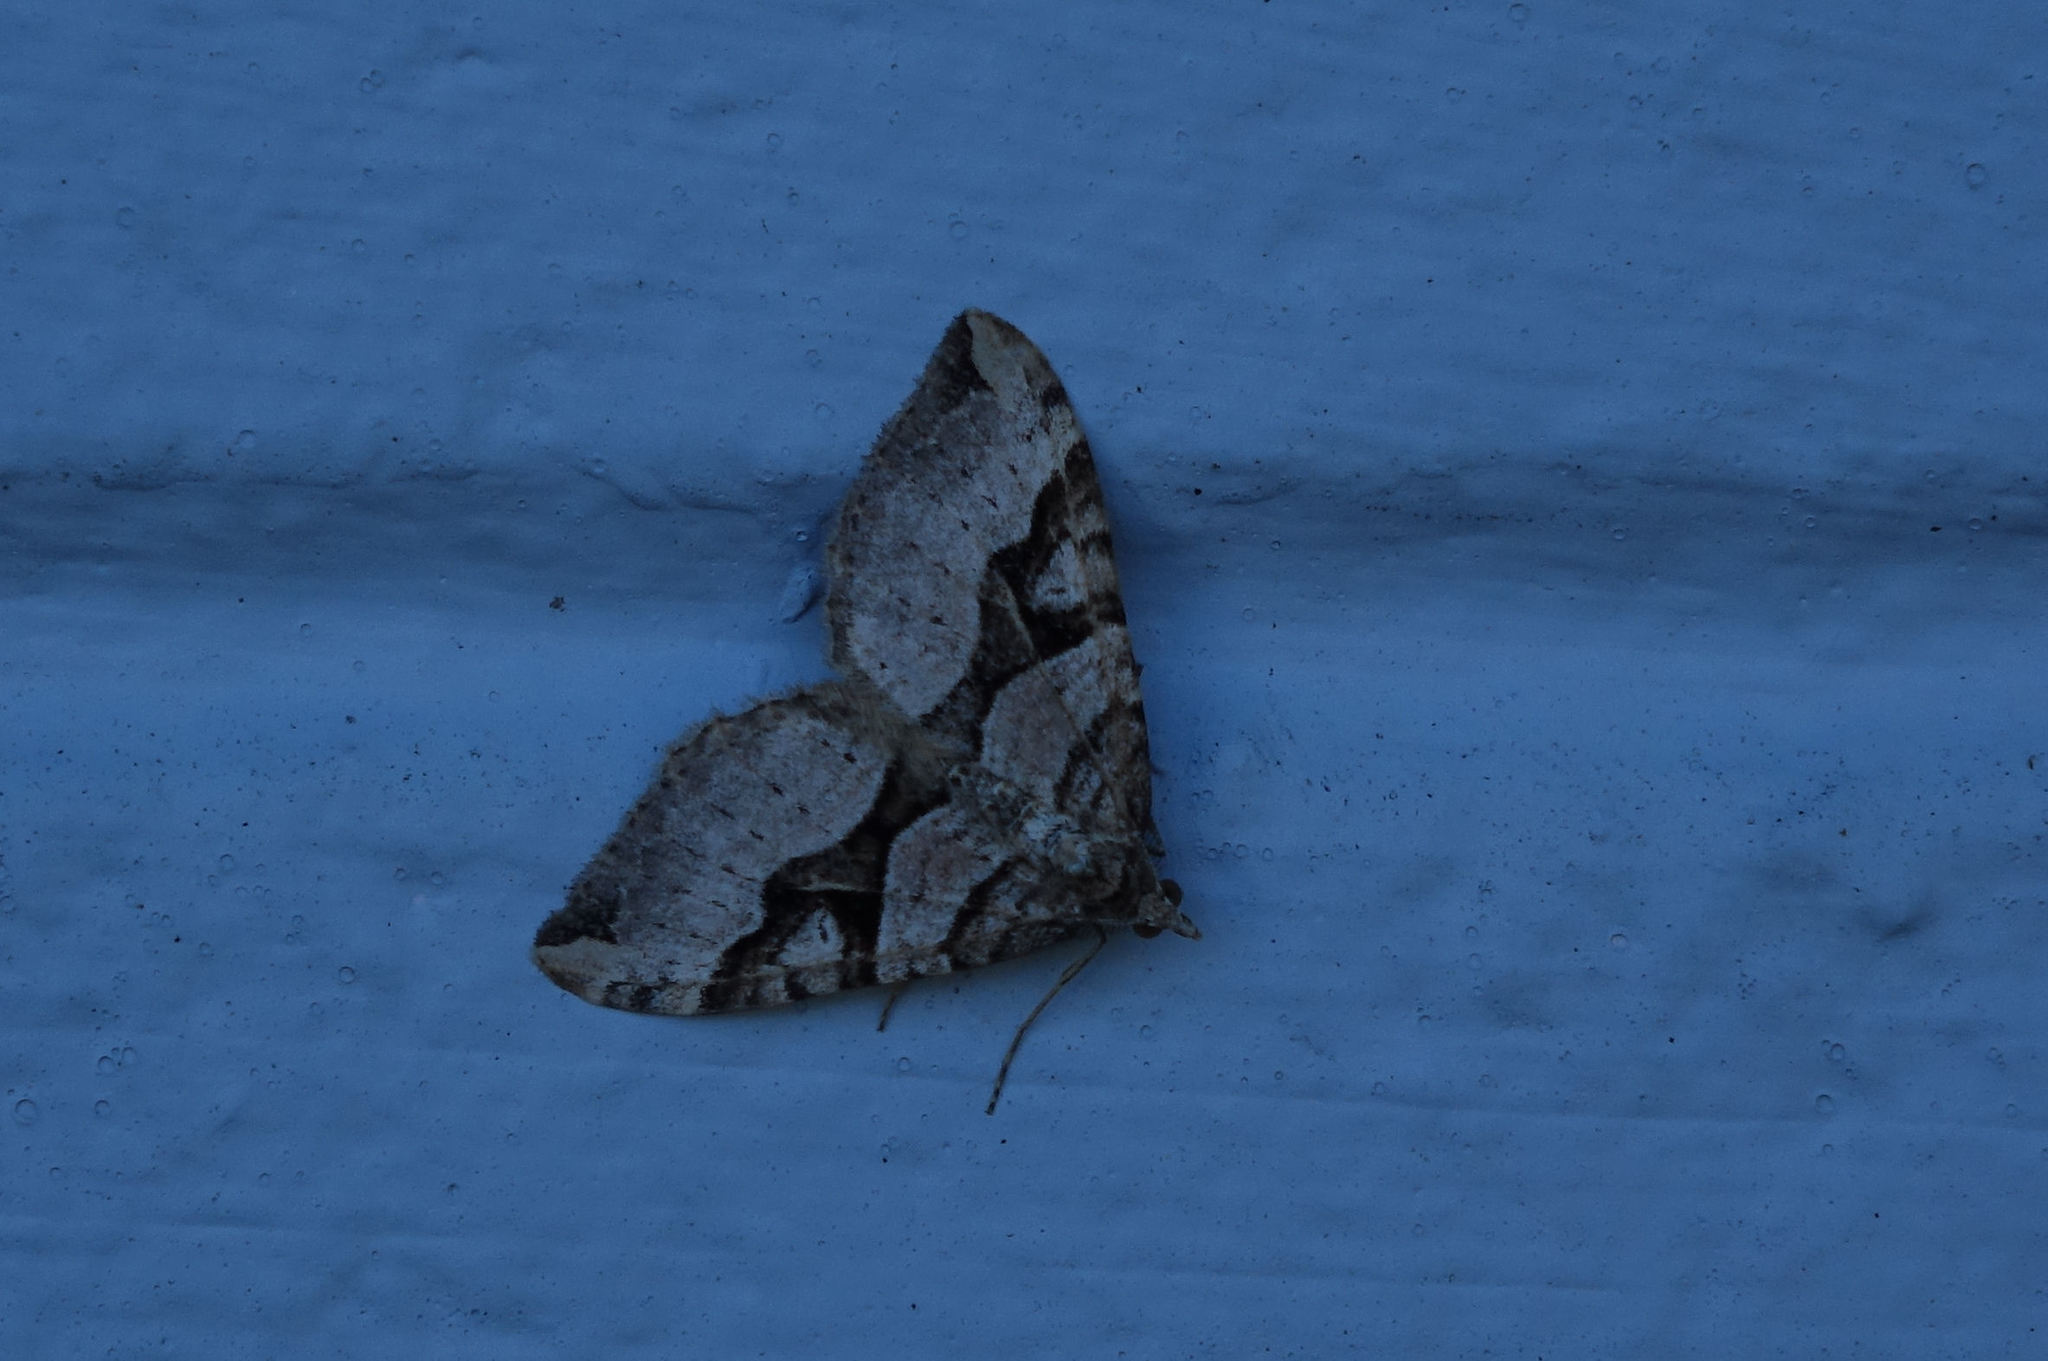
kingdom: Animalia
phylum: Arthropoda
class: Insecta
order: Lepidoptera
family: Geometridae
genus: Xanthorhoe
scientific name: Xanthorhoe semifissata
